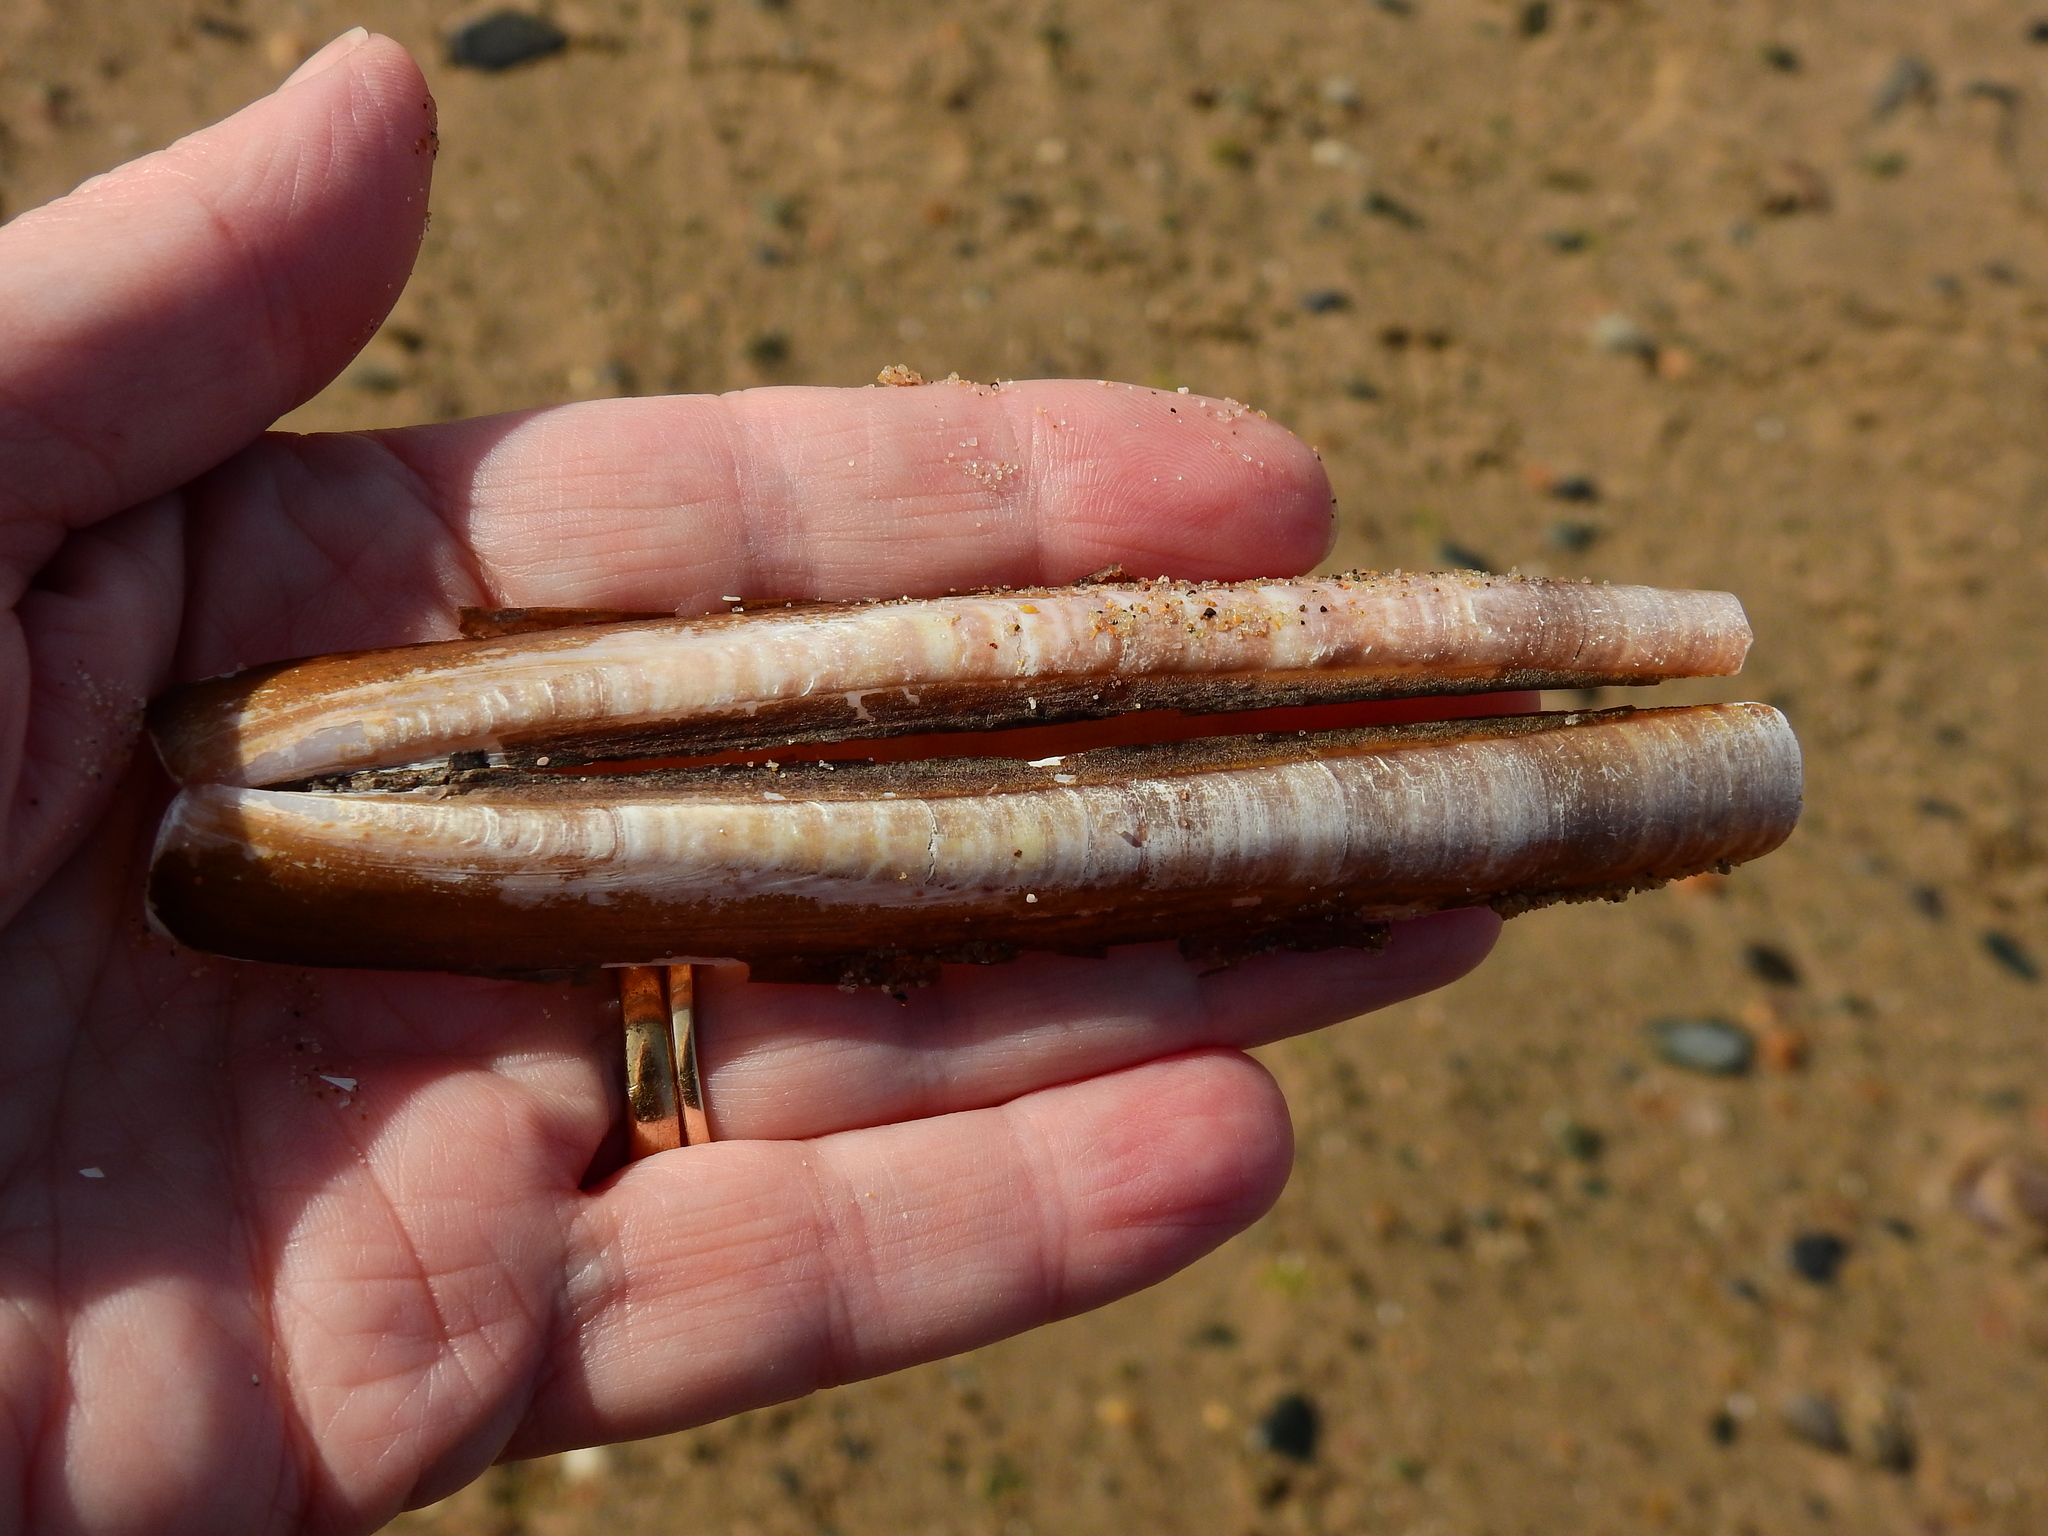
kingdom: Animalia
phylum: Mollusca
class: Bivalvia
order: Adapedonta
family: Pharidae
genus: Ensis
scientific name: Ensis leei
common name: American jack knife clam
